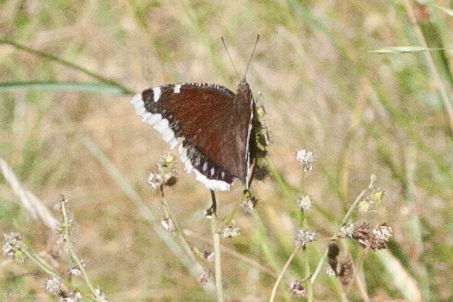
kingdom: Animalia
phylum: Arthropoda
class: Insecta
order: Lepidoptera
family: Nymphalidae
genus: Nymphalis
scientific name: Nymphalis antiopa
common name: Camberwell beauty
